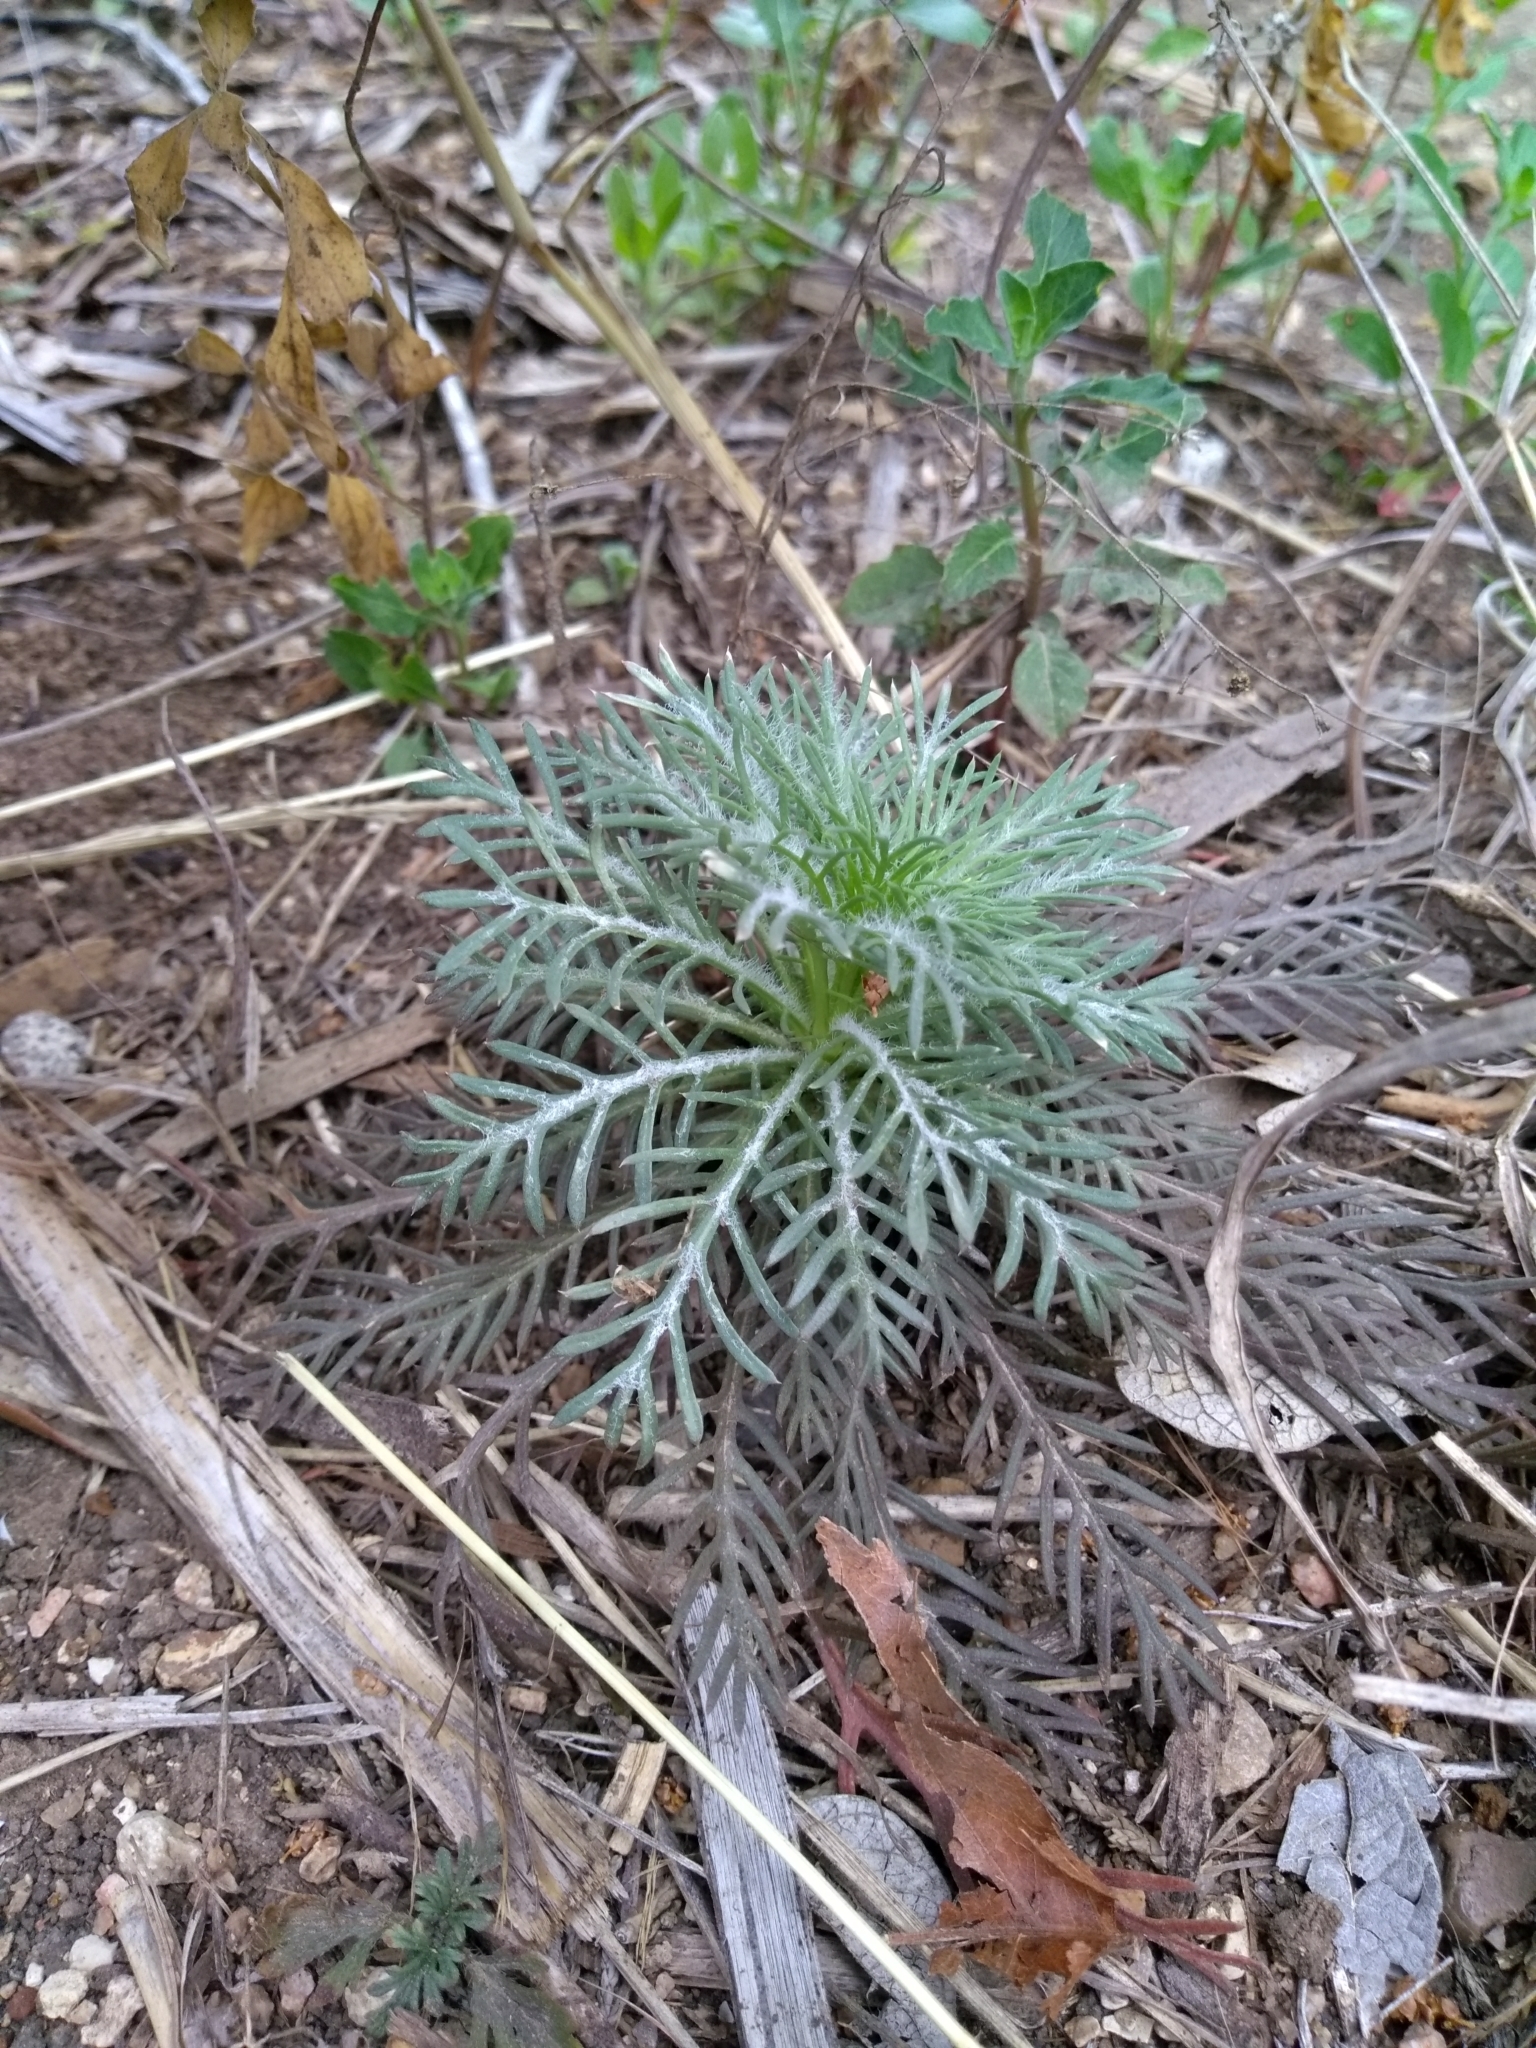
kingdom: Plantae
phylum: Tracheophyta
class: Magnoliopsida
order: Ericales
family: Polemoniaceae
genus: Ipomopsis
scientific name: Ipomopsis rubra
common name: Skyrocket
